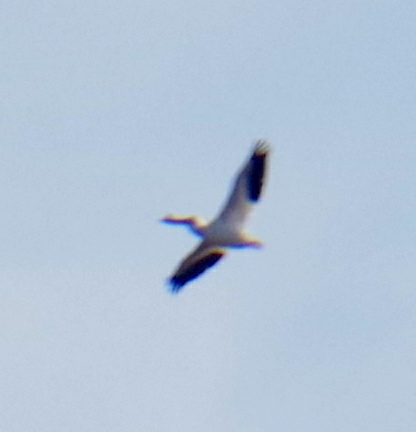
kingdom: Animalia
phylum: Chordata
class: Aves
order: Pelecaniformes
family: Pelecanidae
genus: Pelecanus
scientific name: Pelecanus erythrorhynchos
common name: American white pelican
